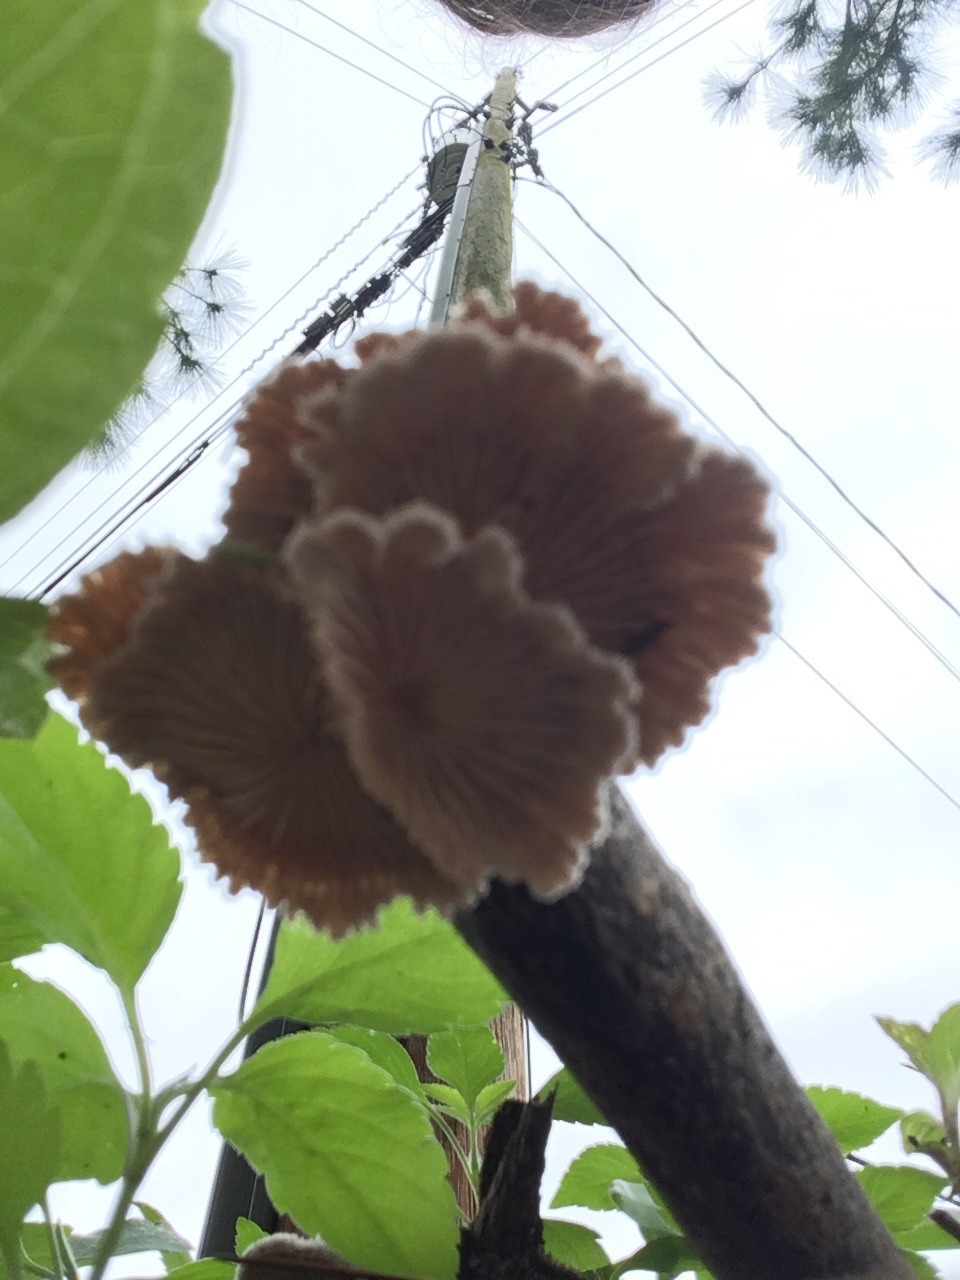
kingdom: Fungi
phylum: Basidiomycota
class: Agaricomycetes
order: Agaricales
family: Schizophyllaceae
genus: Schizophyllum
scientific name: Schizophyllum commune
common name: Common porecrust
